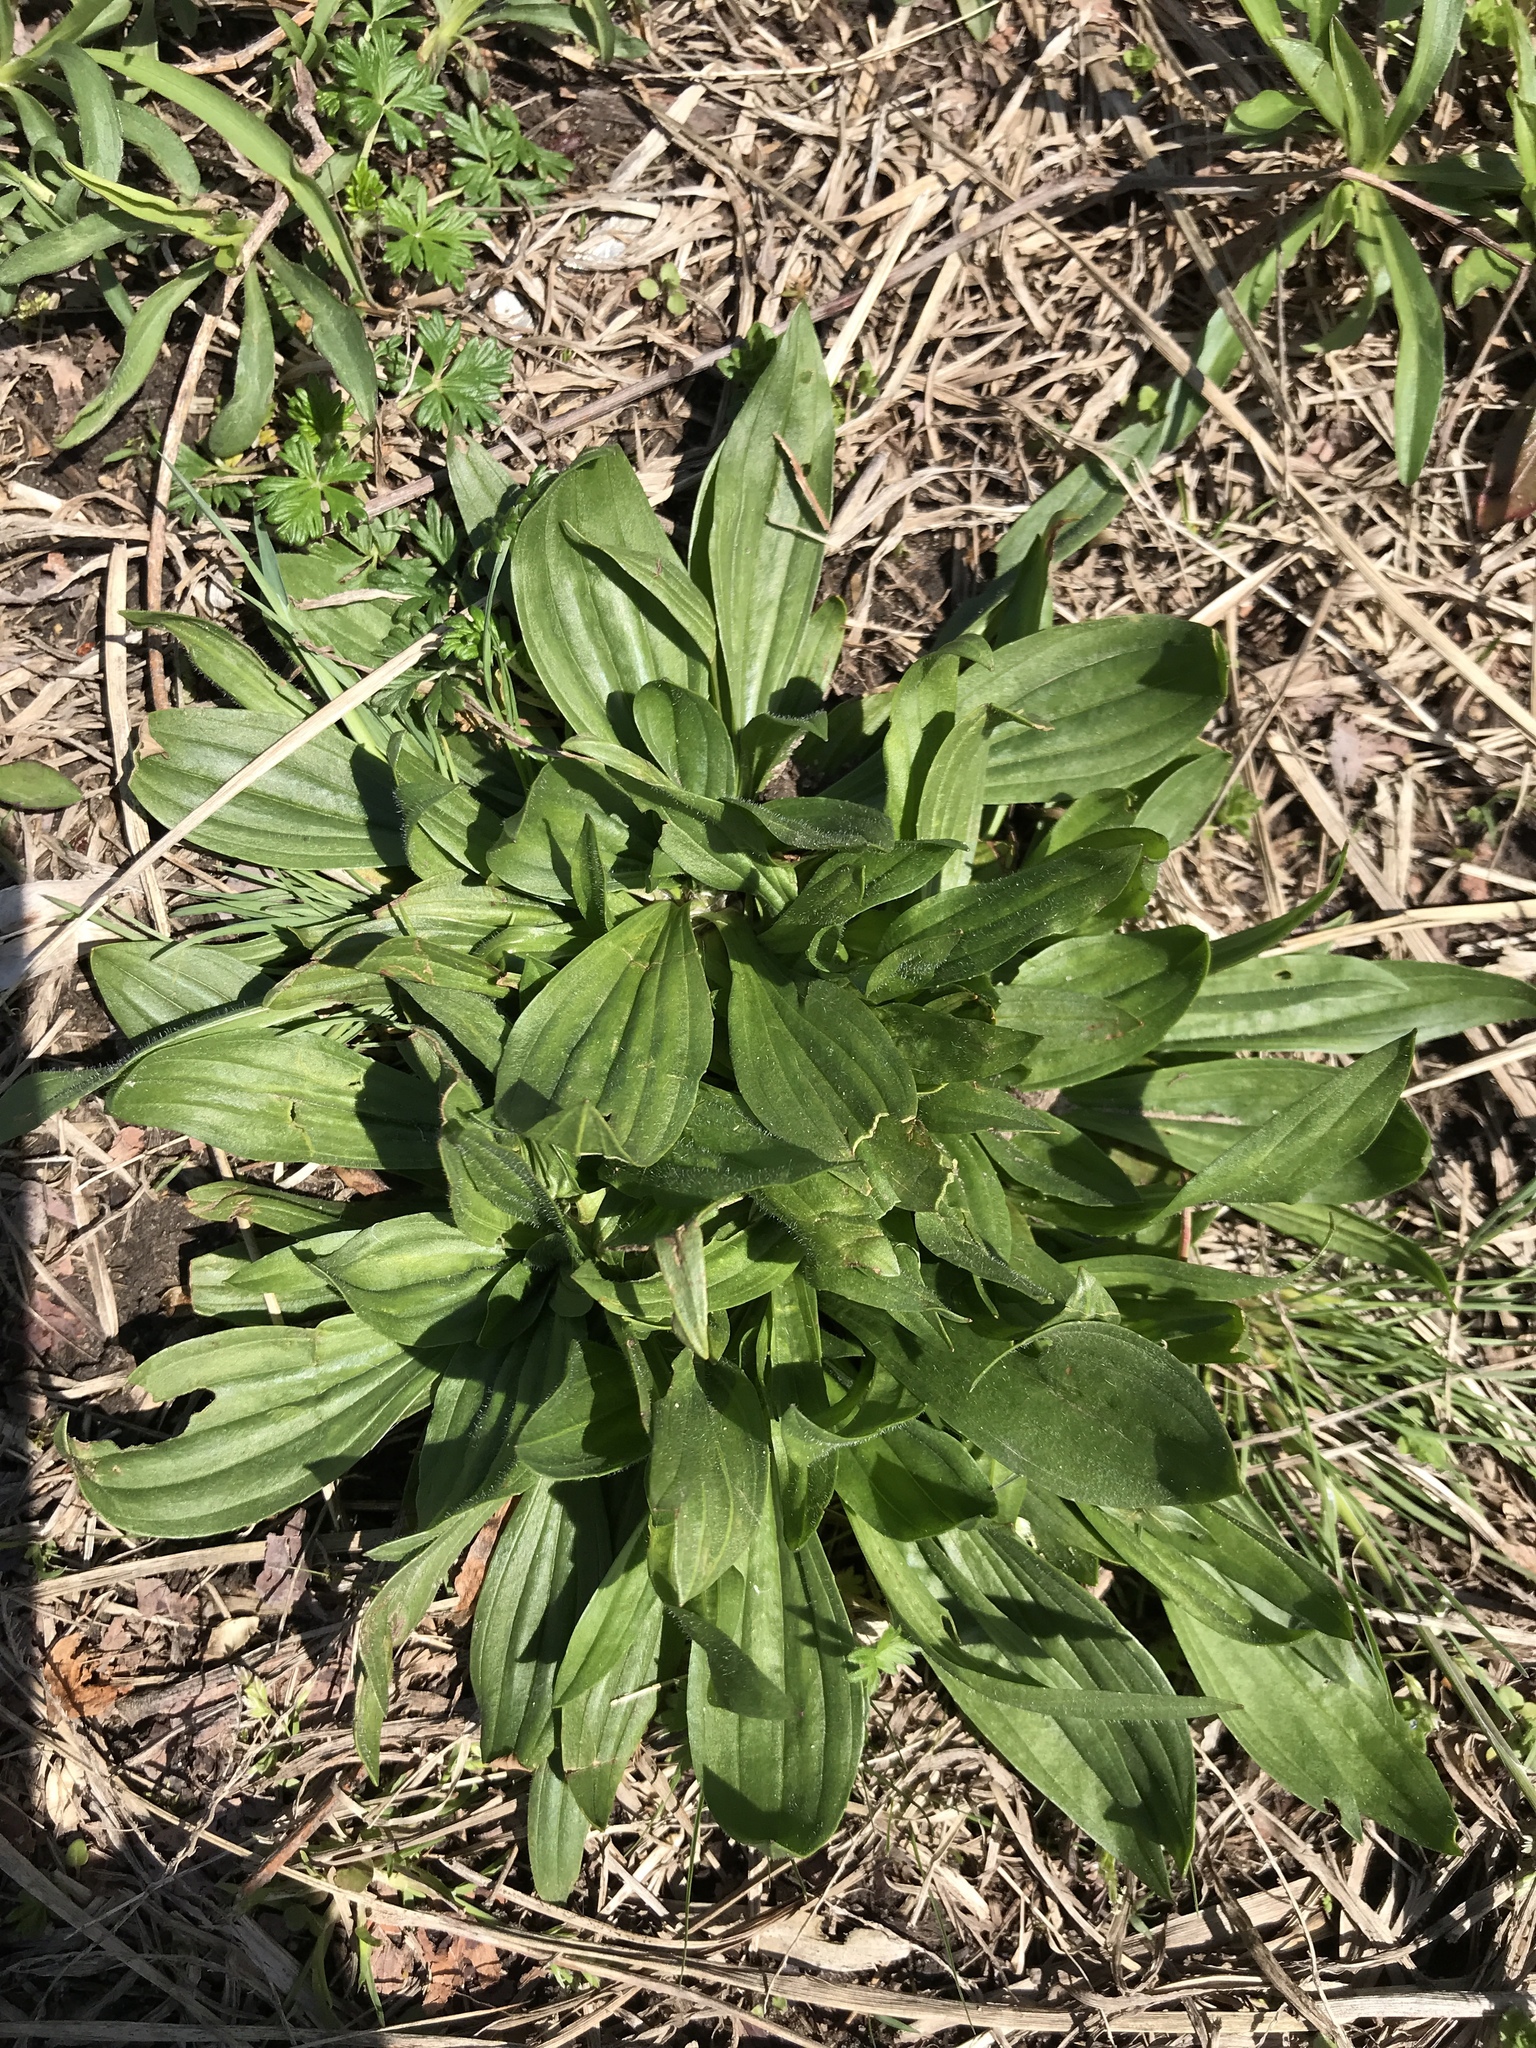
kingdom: Plantae
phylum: Tracheophyta
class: Magnoliopsida
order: Lamiales
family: Plantaginaceae
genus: Plantago
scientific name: Plantago lanceolata
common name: Ribwort plantain
